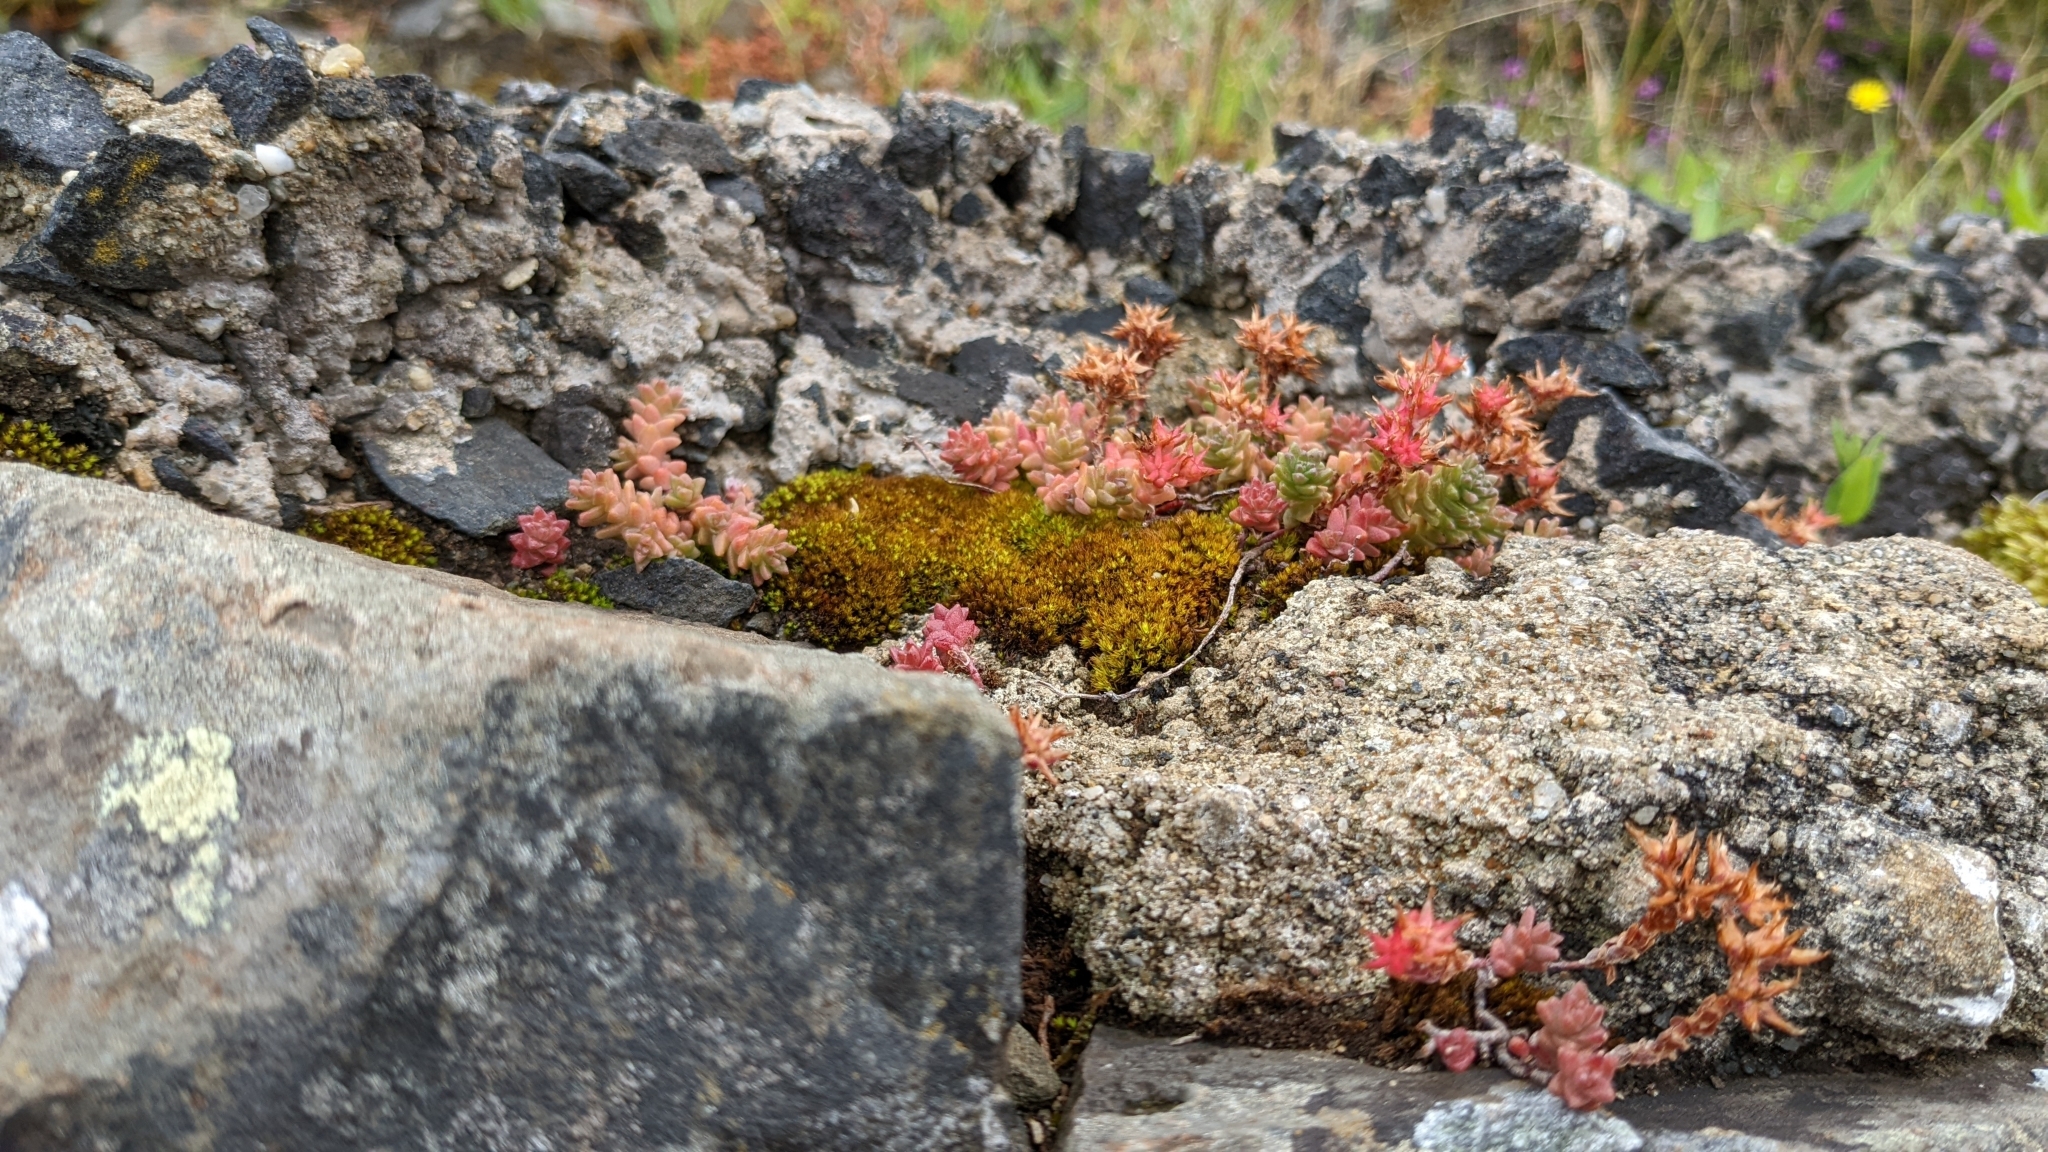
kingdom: Plantae
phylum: Tracheophyta
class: Magnoliopsida
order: Saxifragales
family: Crassulaceae
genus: Sedum
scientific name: Sedum anglicum
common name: English stonecrop
